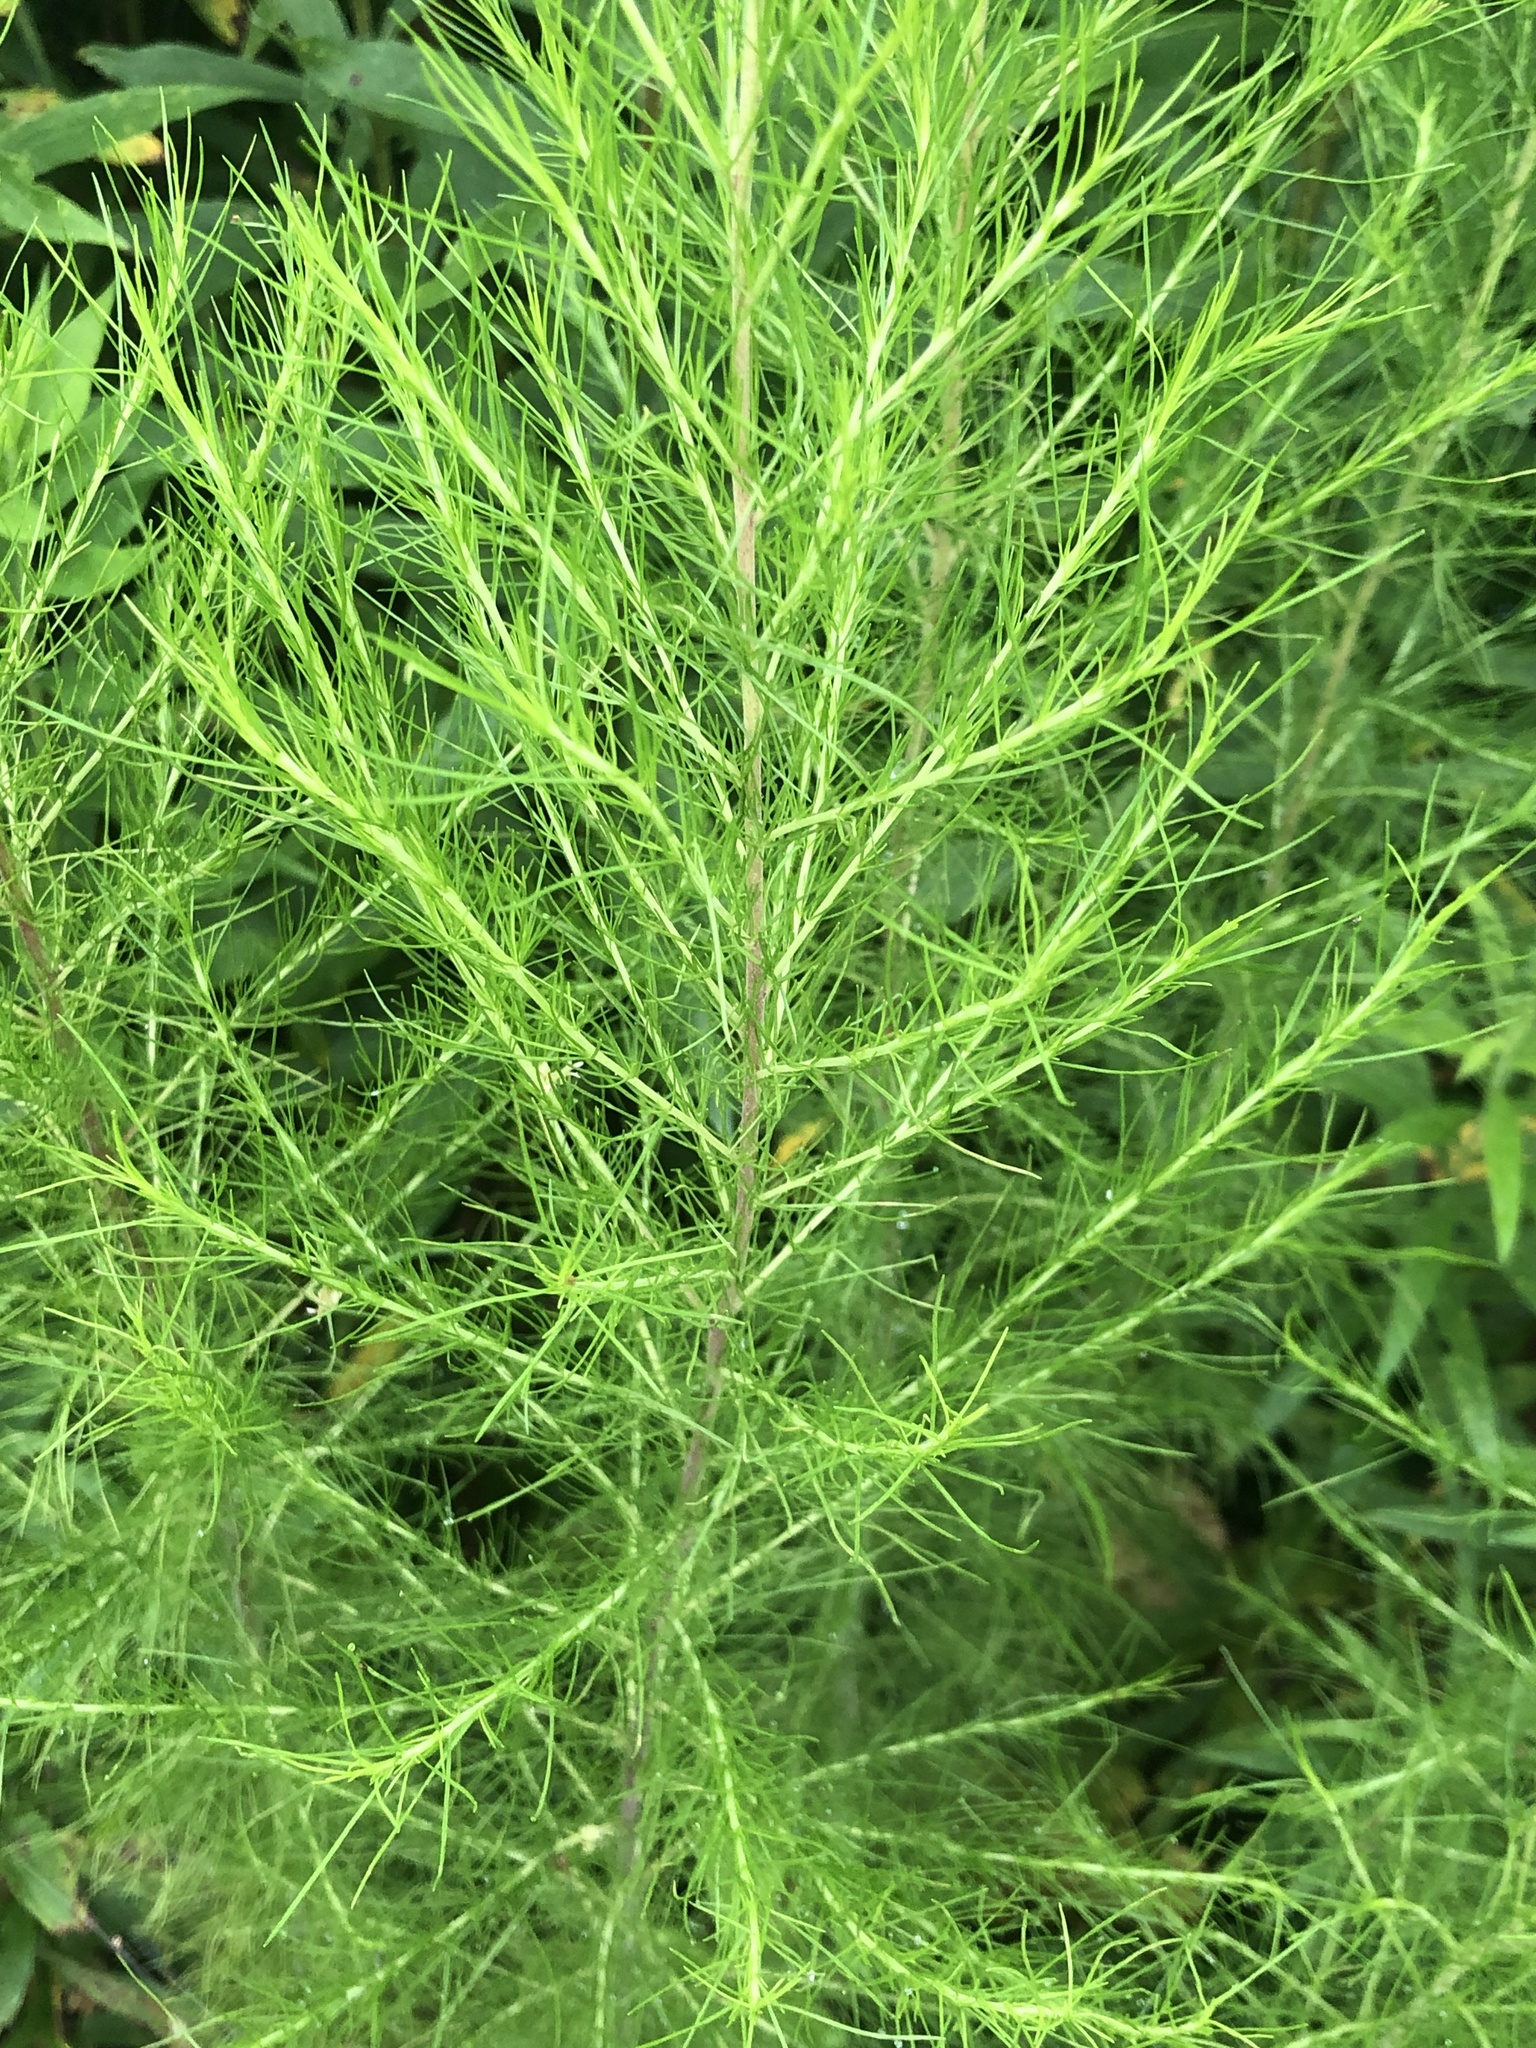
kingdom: Plantae
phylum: Tracheophyta
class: Magnoliopsida
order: Asterales
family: Asteraceae
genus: Eupatorium
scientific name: Eupatorium capillifolium
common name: Dog-fennel
